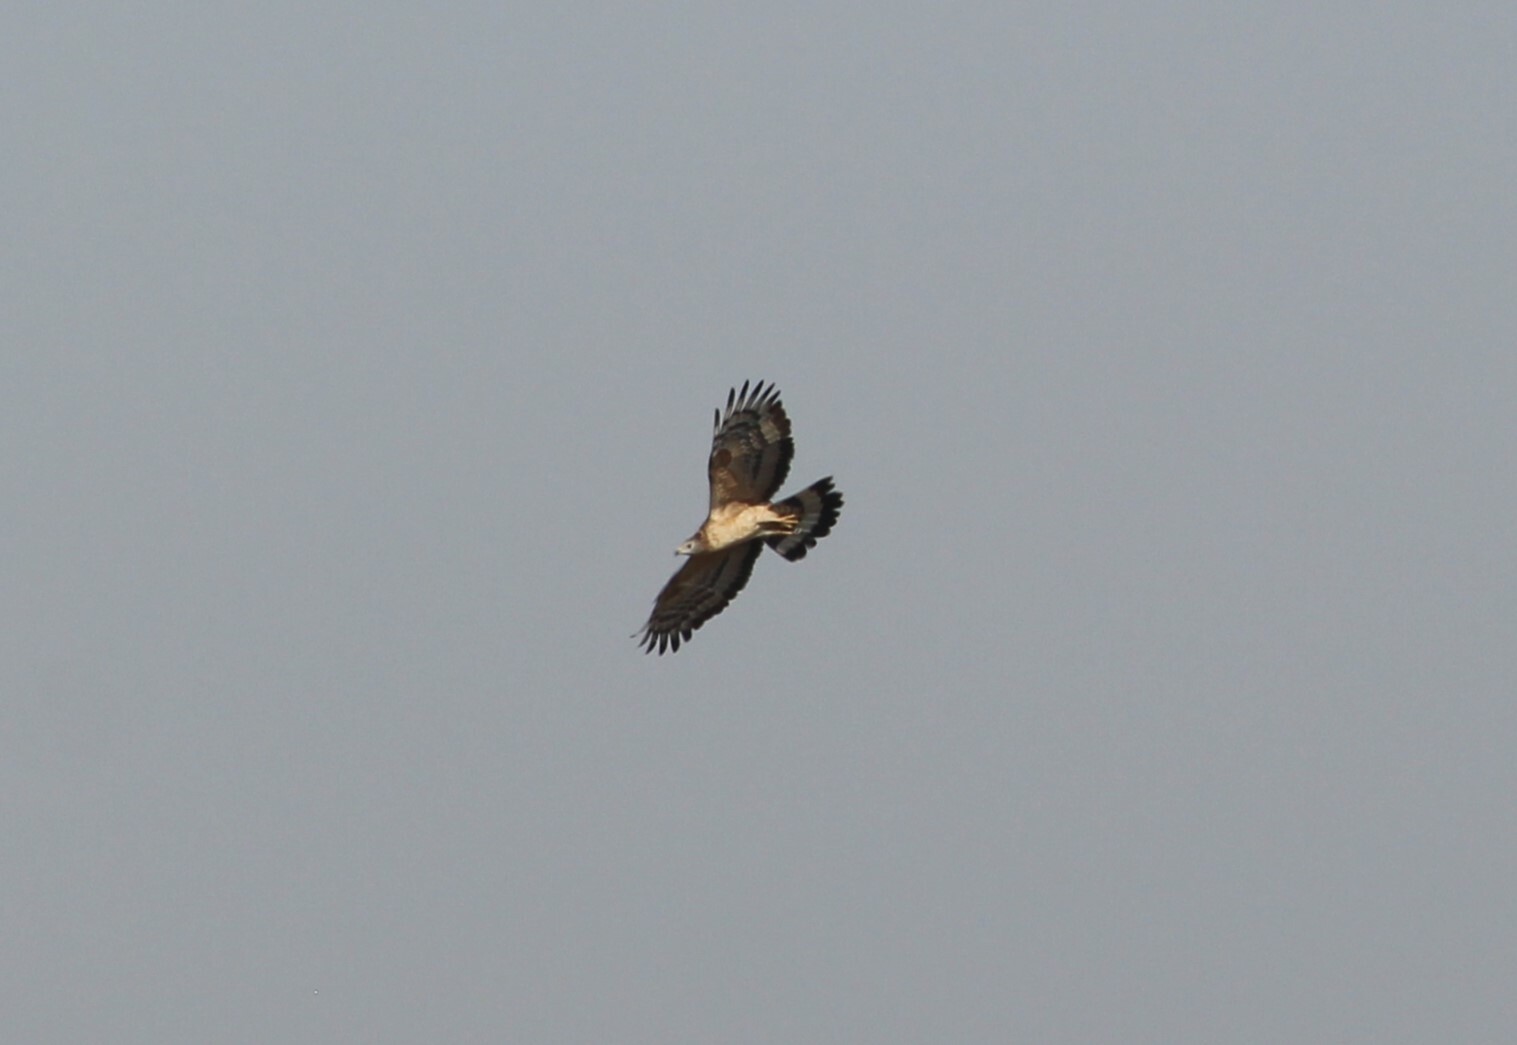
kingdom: Animalia
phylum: Chordata
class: Aves
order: Accipitriformes
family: Accipitridae
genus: Pernis
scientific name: Pernis ptilorhynchus
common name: Crested honey buzzard
